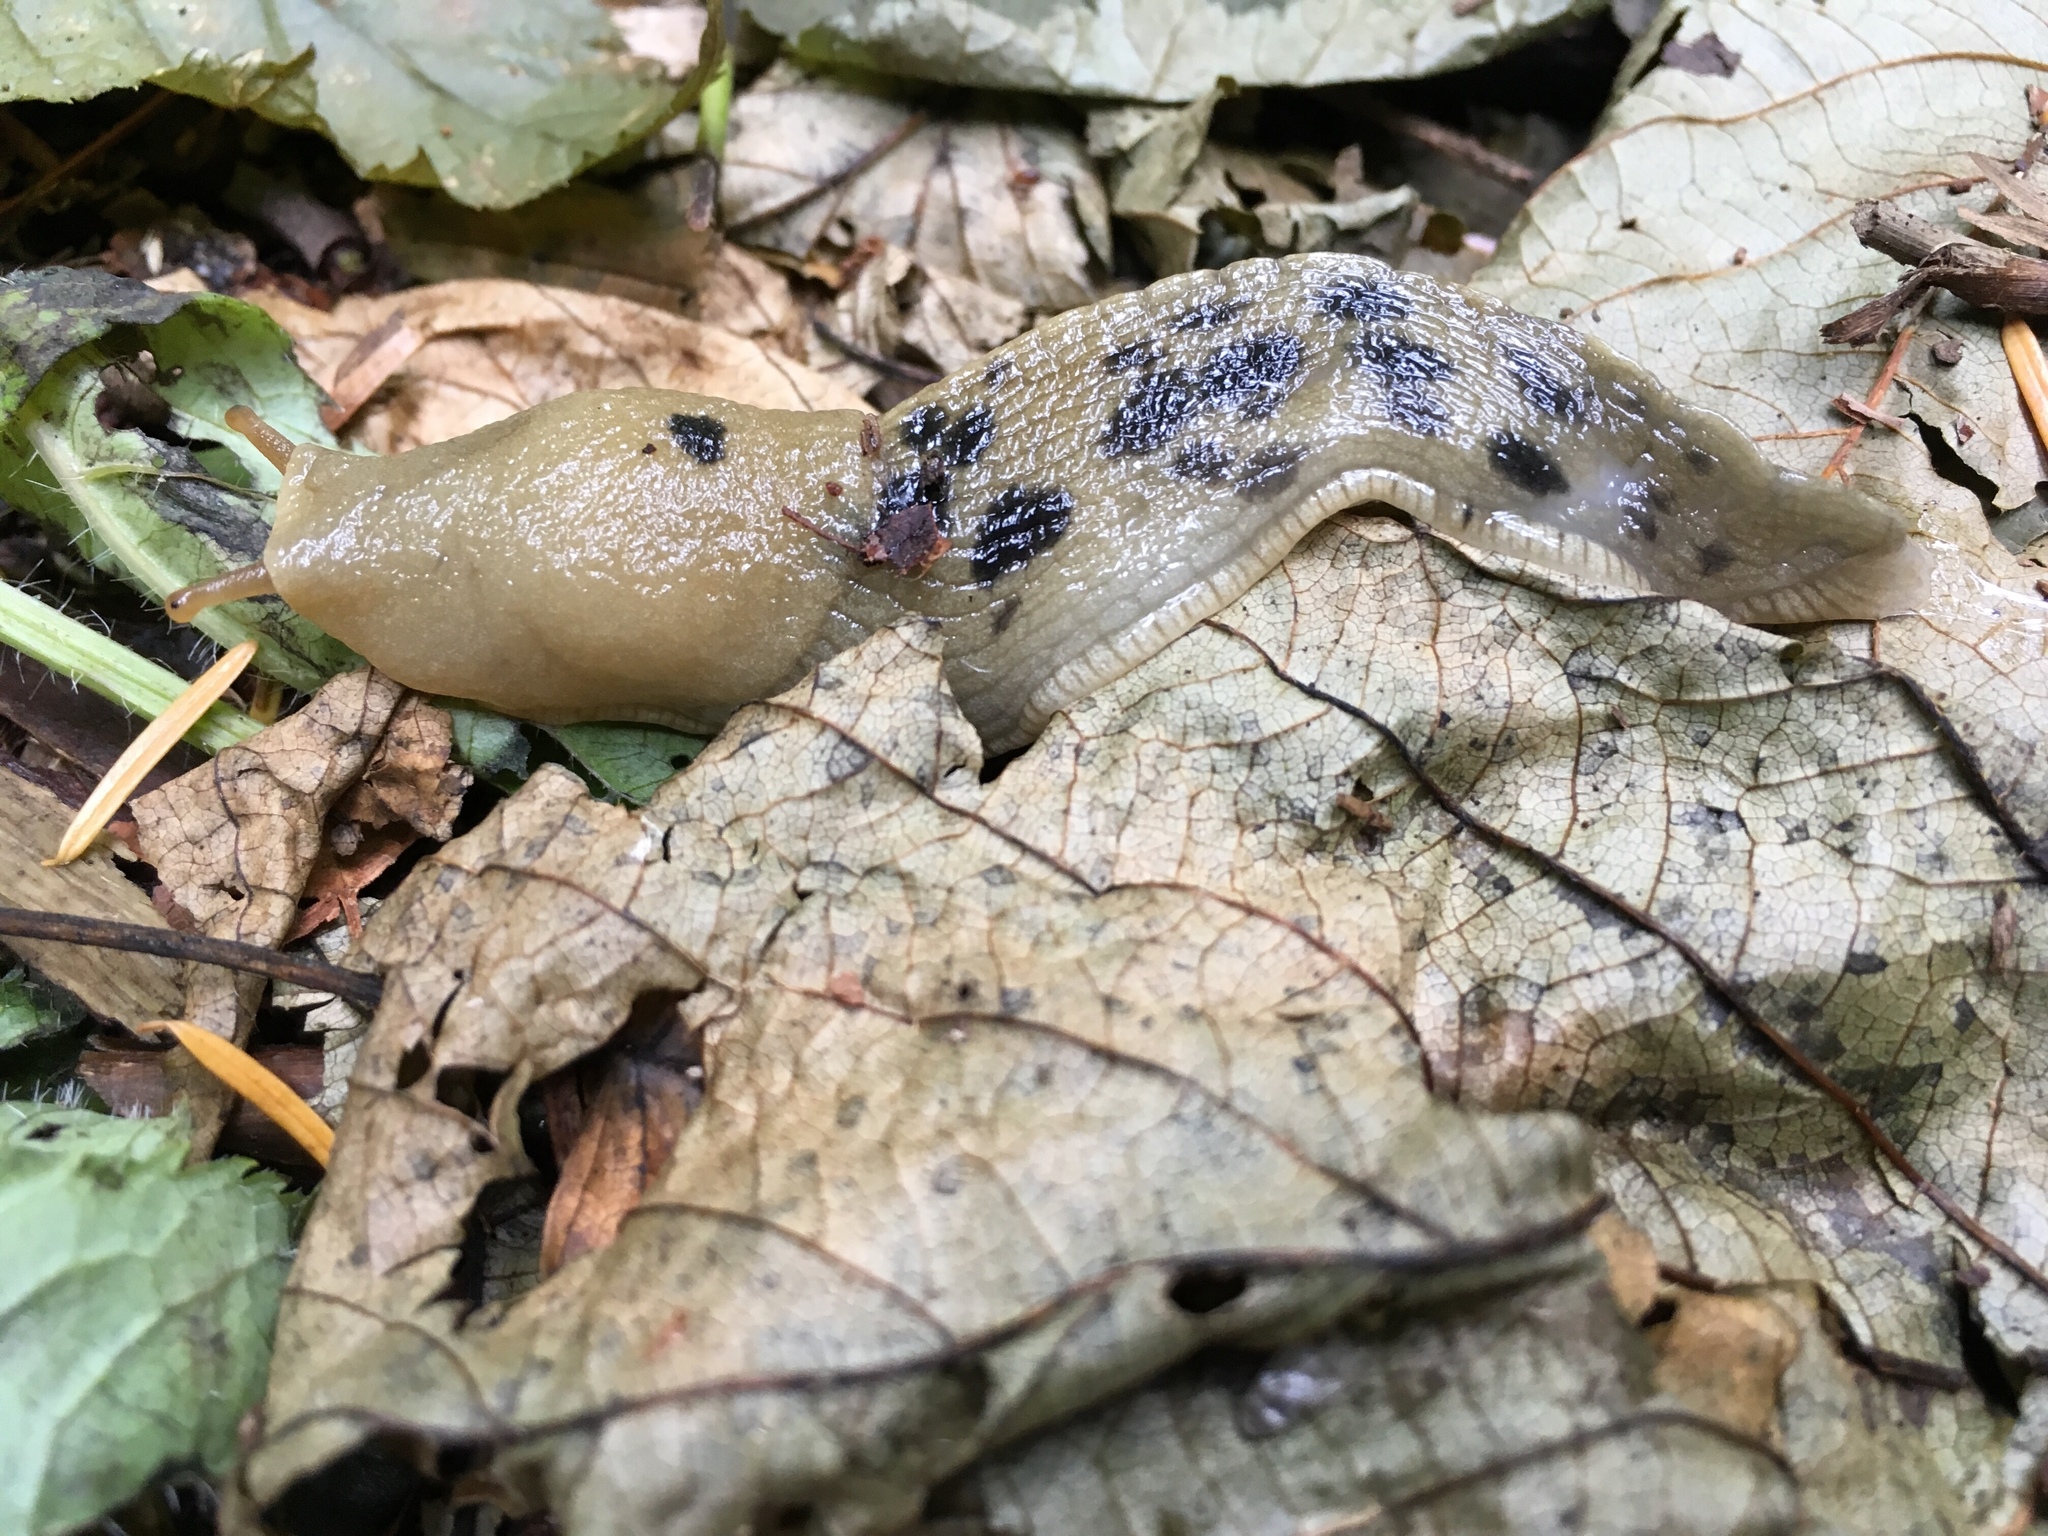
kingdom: Animalia
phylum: Mollusca
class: Gastropoda
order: Stylommatophora
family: Ariolimacidae
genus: Ariolimax
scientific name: Ariolimax columbianus
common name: Pacific banana slug
